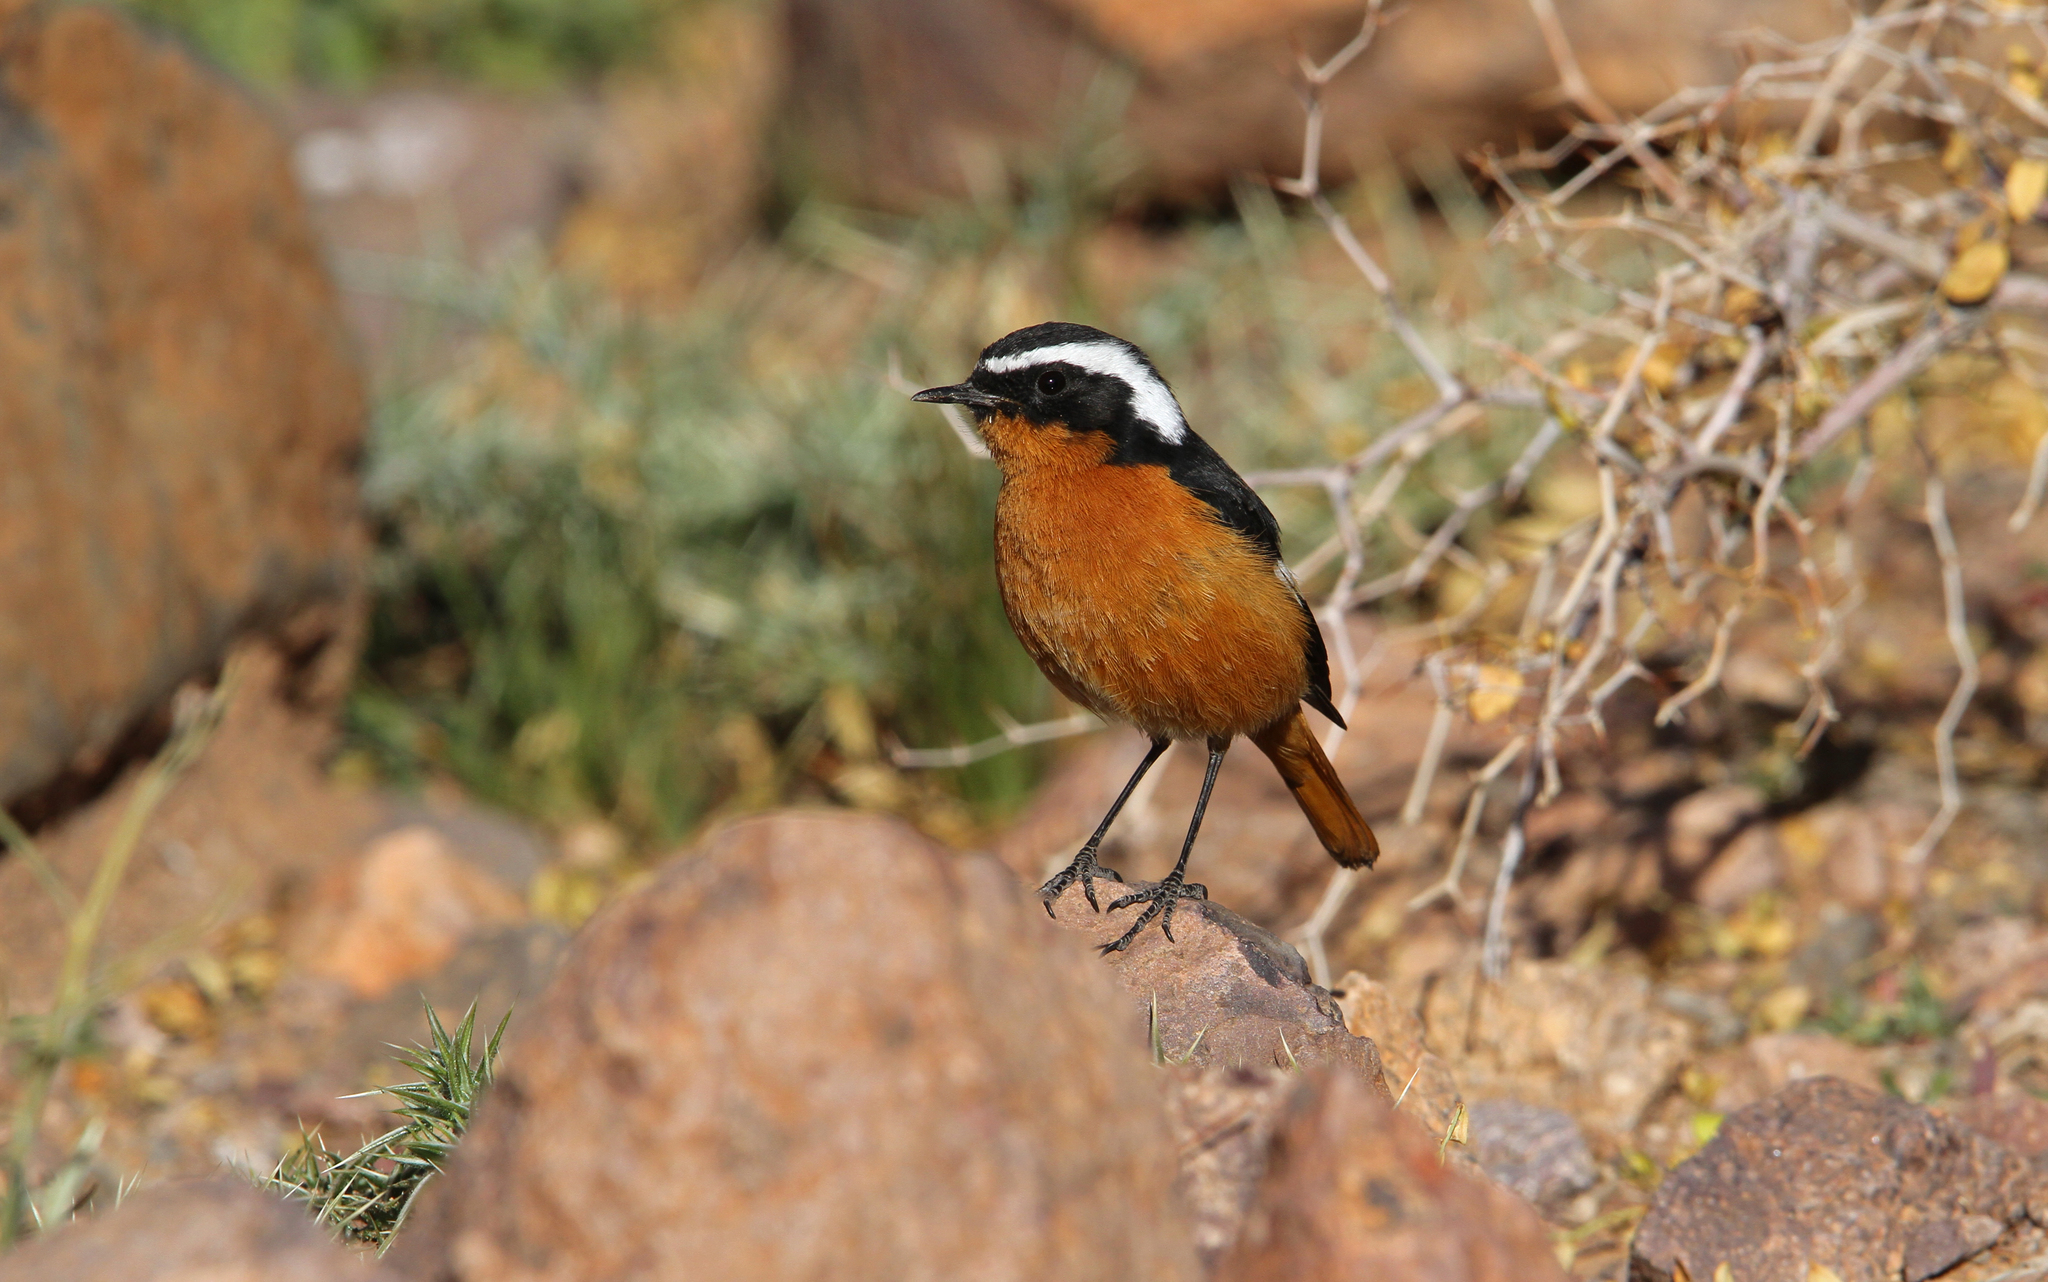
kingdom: Animalia
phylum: Chordata
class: Aves
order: Passeriformes
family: Muscicapidae
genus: Phoenicurus
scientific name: Phoenicurus moussieri
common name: Moussier's redstart
